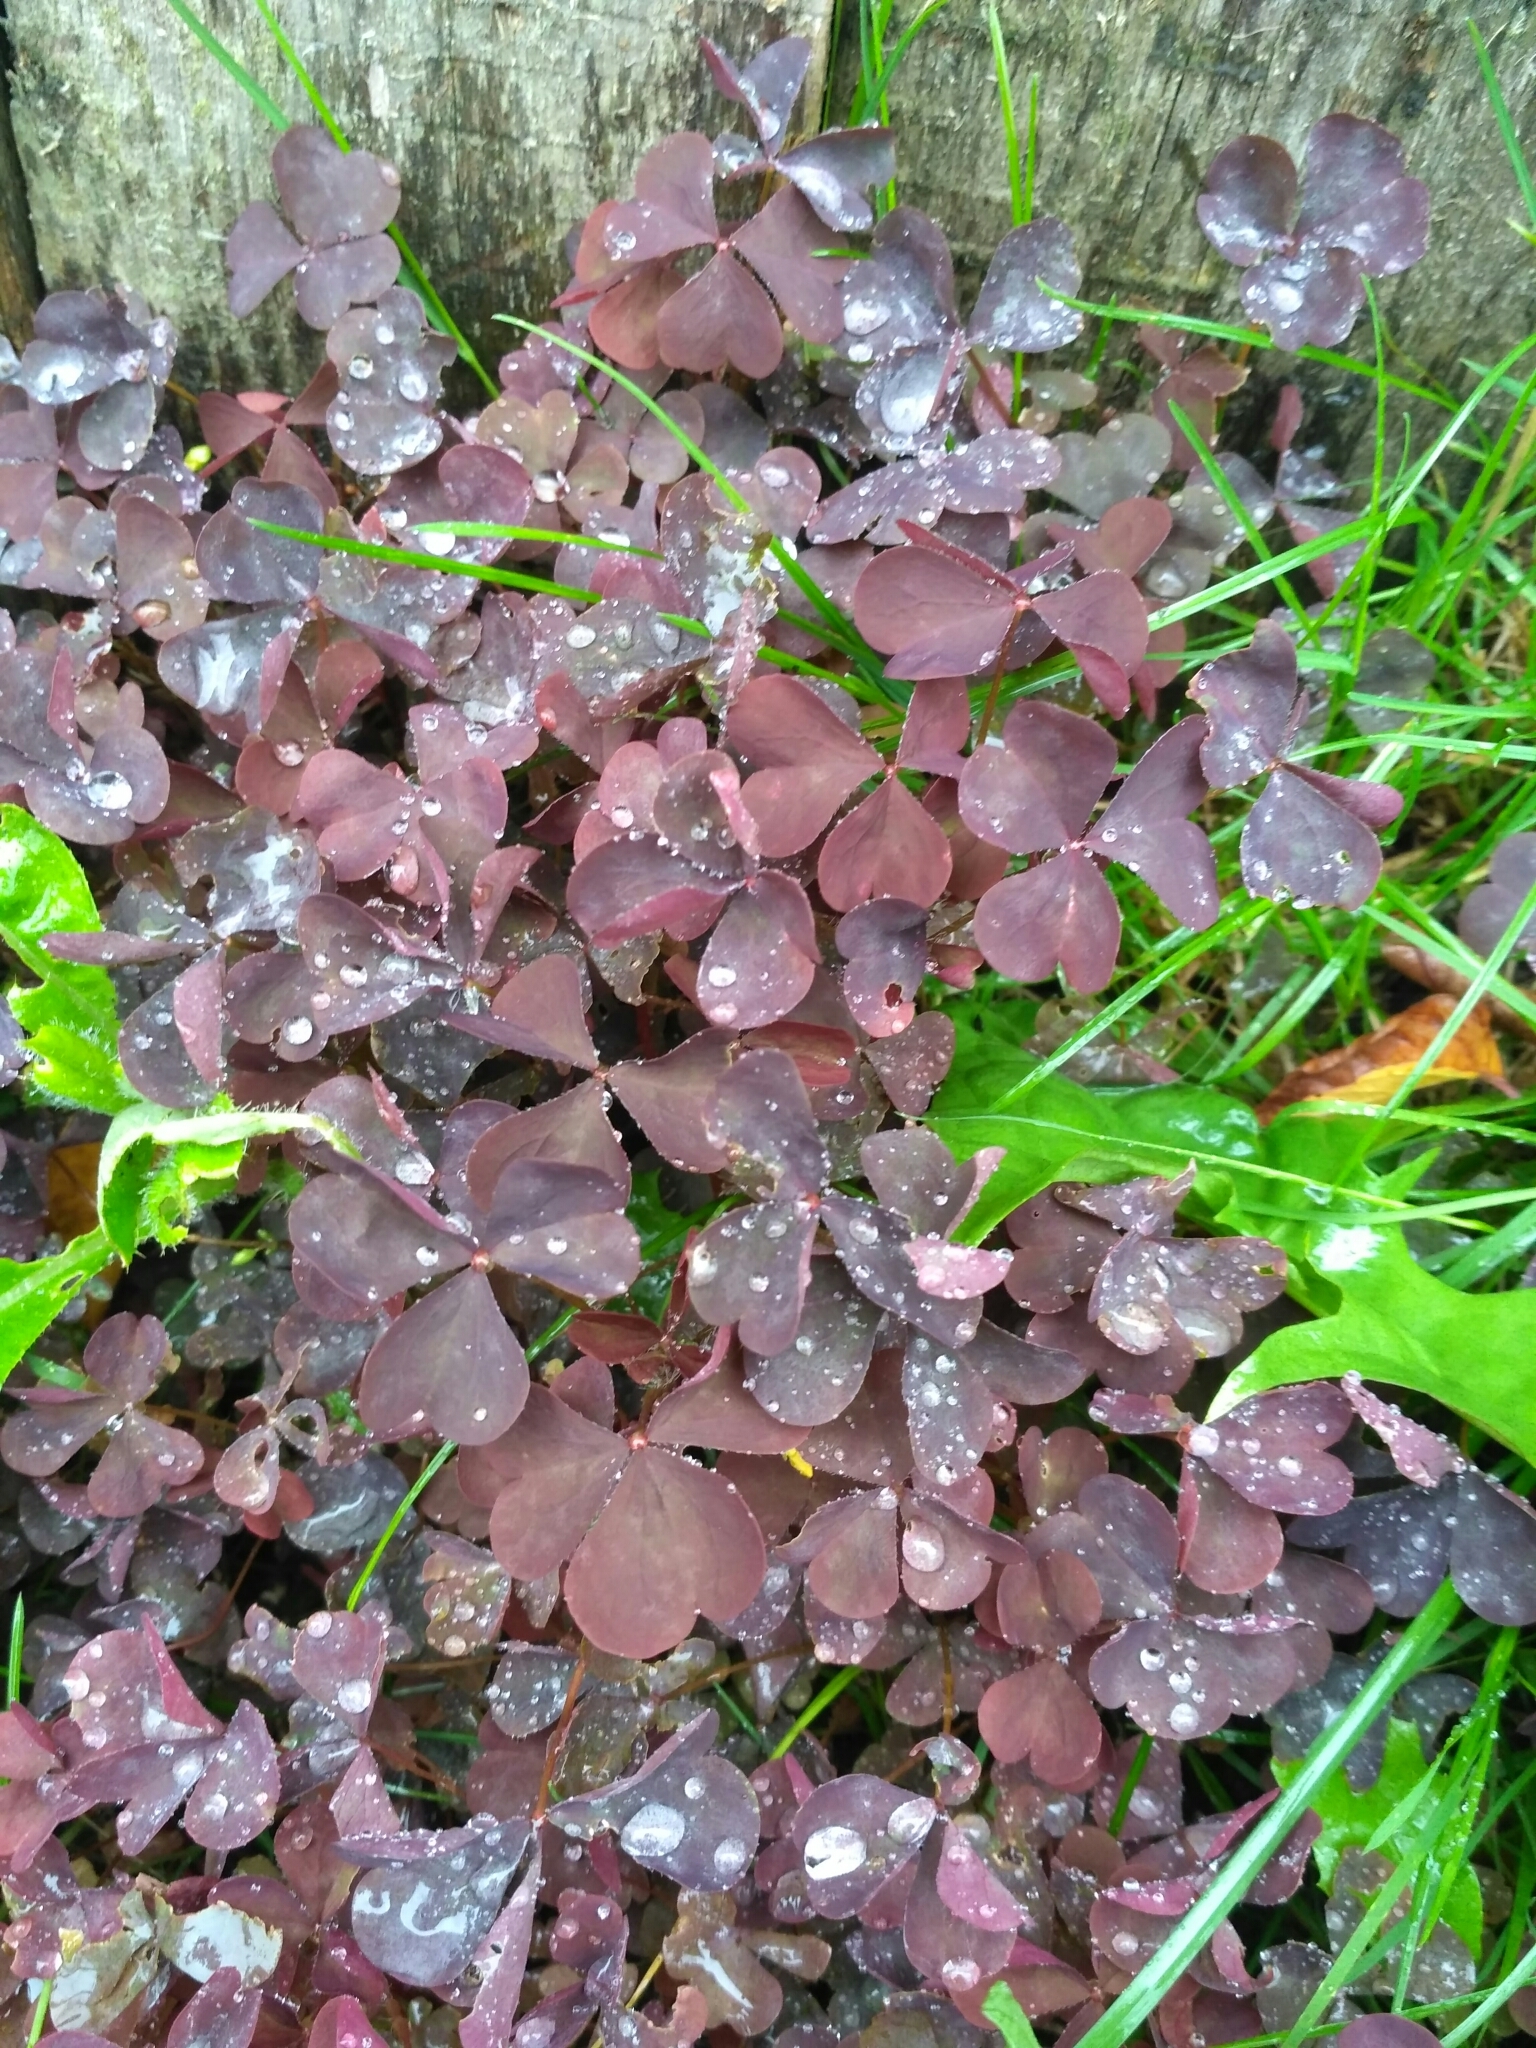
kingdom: Plantae
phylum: Tracheophyta
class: Magnoliopsida
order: Oxalidales
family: Oxalidaceae
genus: Oxalis
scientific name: Oxalis stricta
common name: Upright yellow-sorrel
